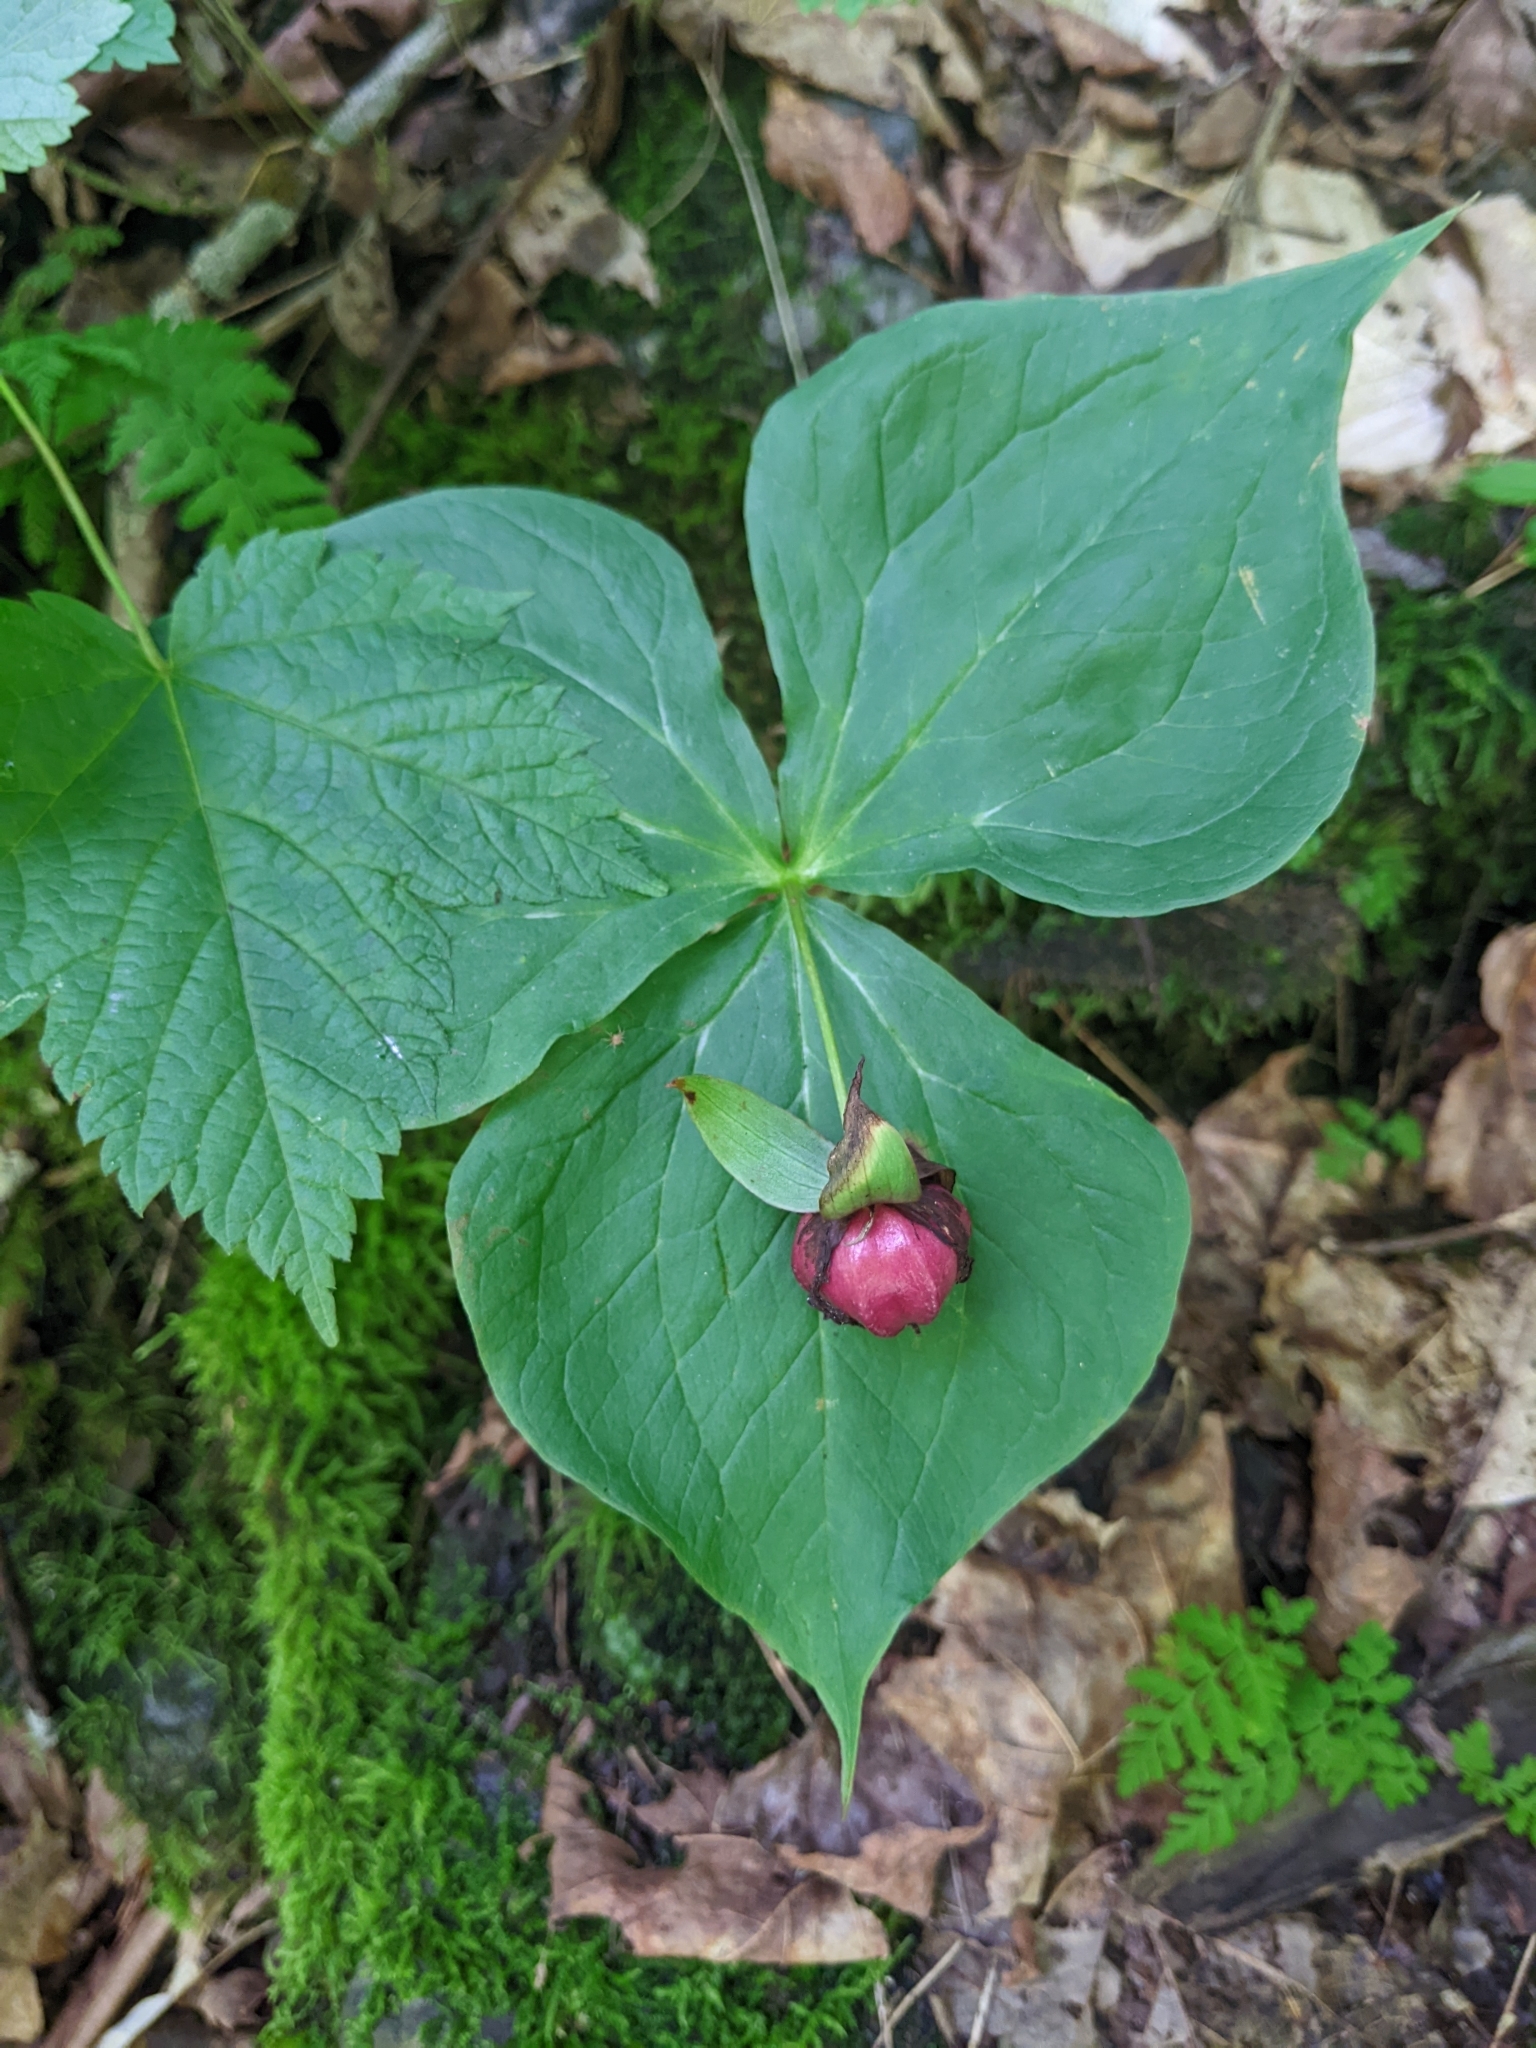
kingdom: Plantae
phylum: Tracheophyta
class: Liliopsida
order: Liliales
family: Melanthiaceae
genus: Trillium
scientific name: Trillium erectum
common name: Purple trillium
